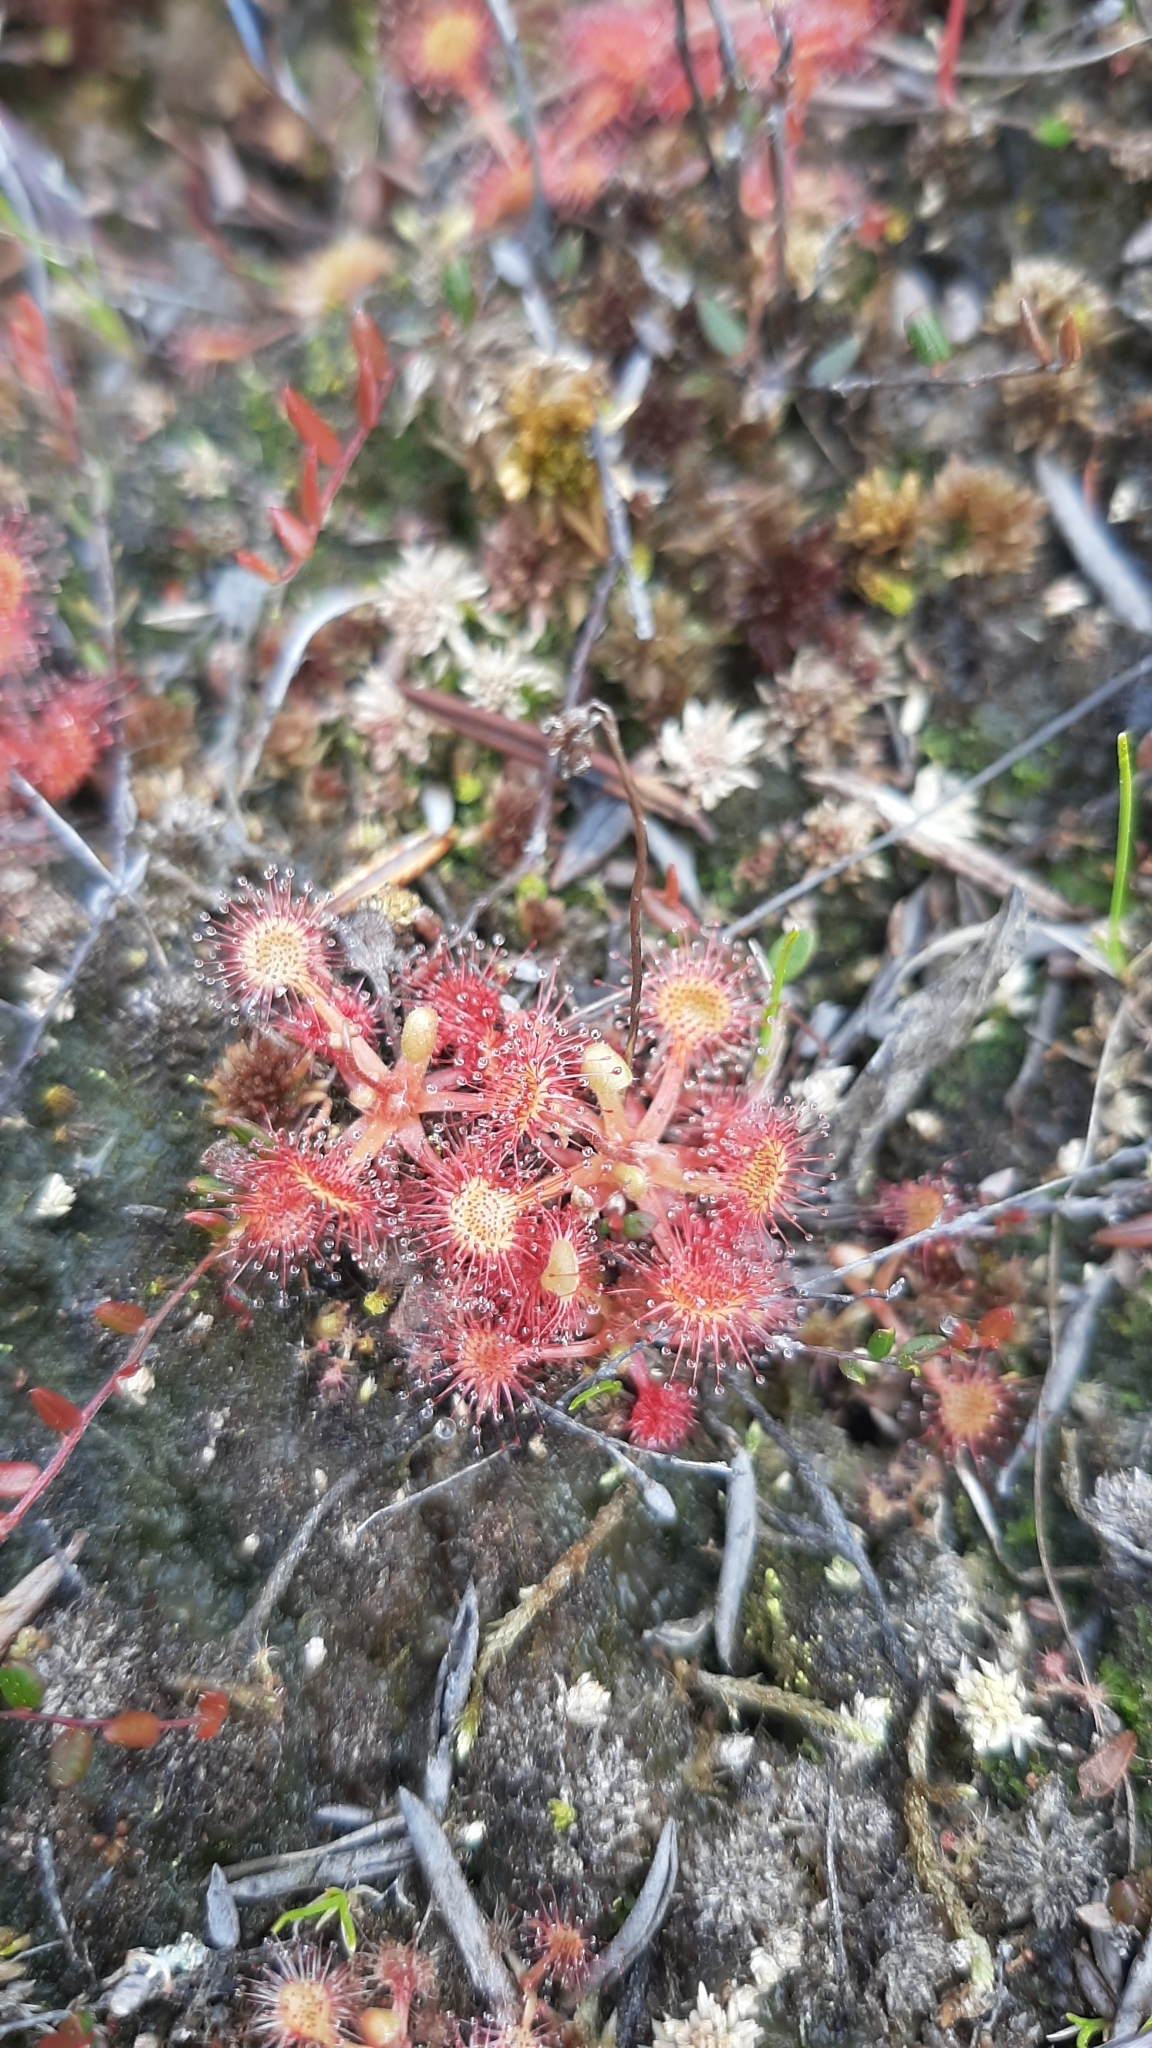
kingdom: Plantae
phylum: Tracheophyta
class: Magnoliopsida
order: Caryophyllales
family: Droseraceae
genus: Drosera
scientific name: Drosera rotundifolia
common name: Round-leaved sundew
